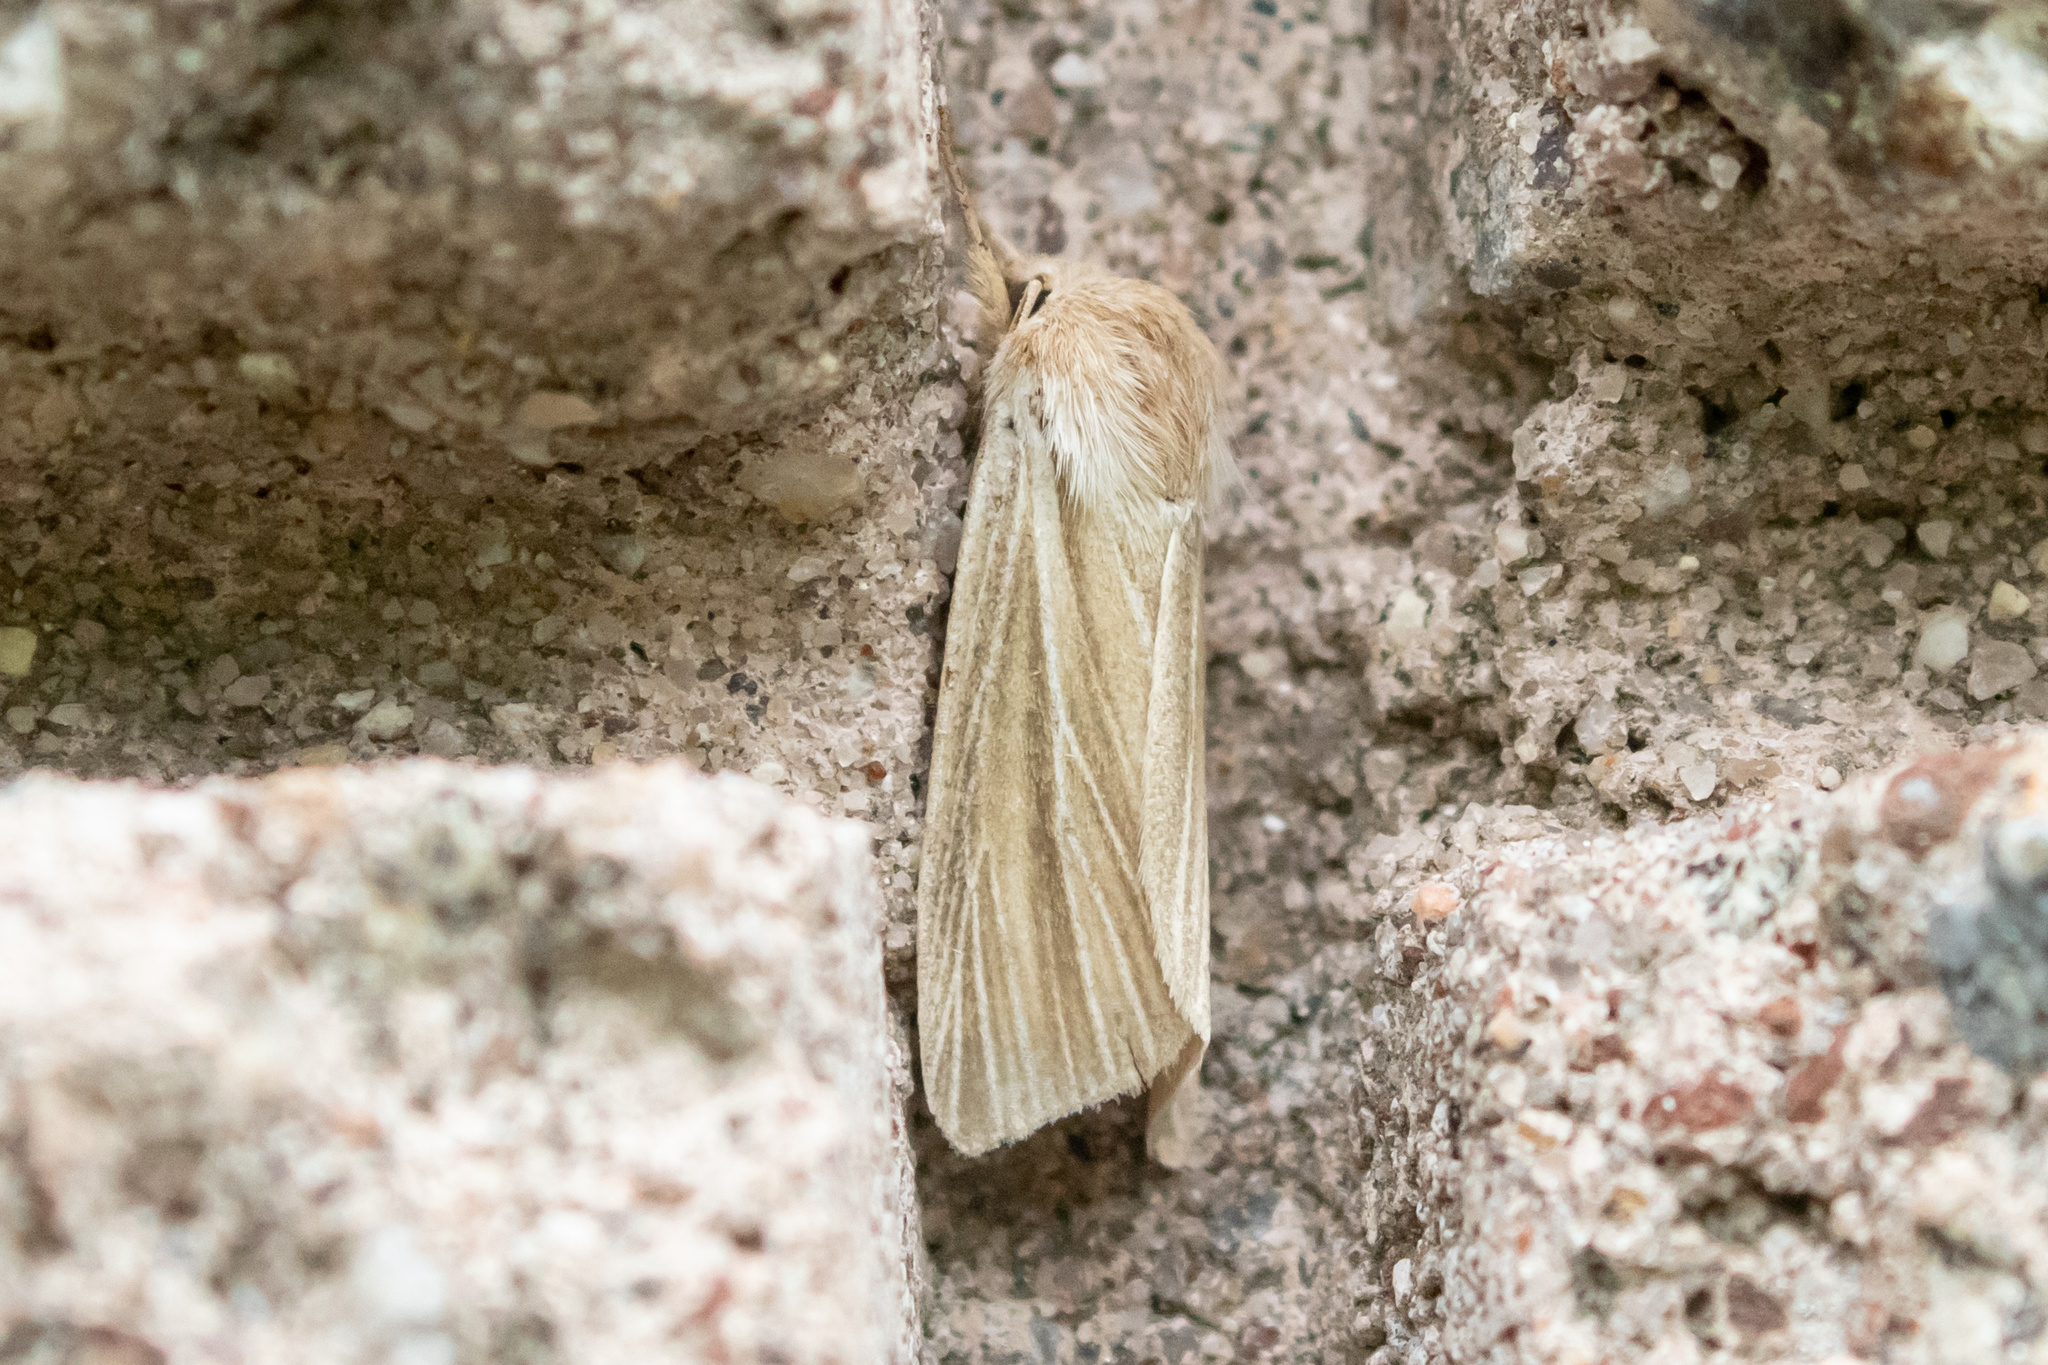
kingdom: Animalia
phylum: Arthropoda
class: Insecta
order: Lepidoptera
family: Noctuidae
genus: Acronicta
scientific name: Acronicta insularis
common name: Henry's marsh moth
